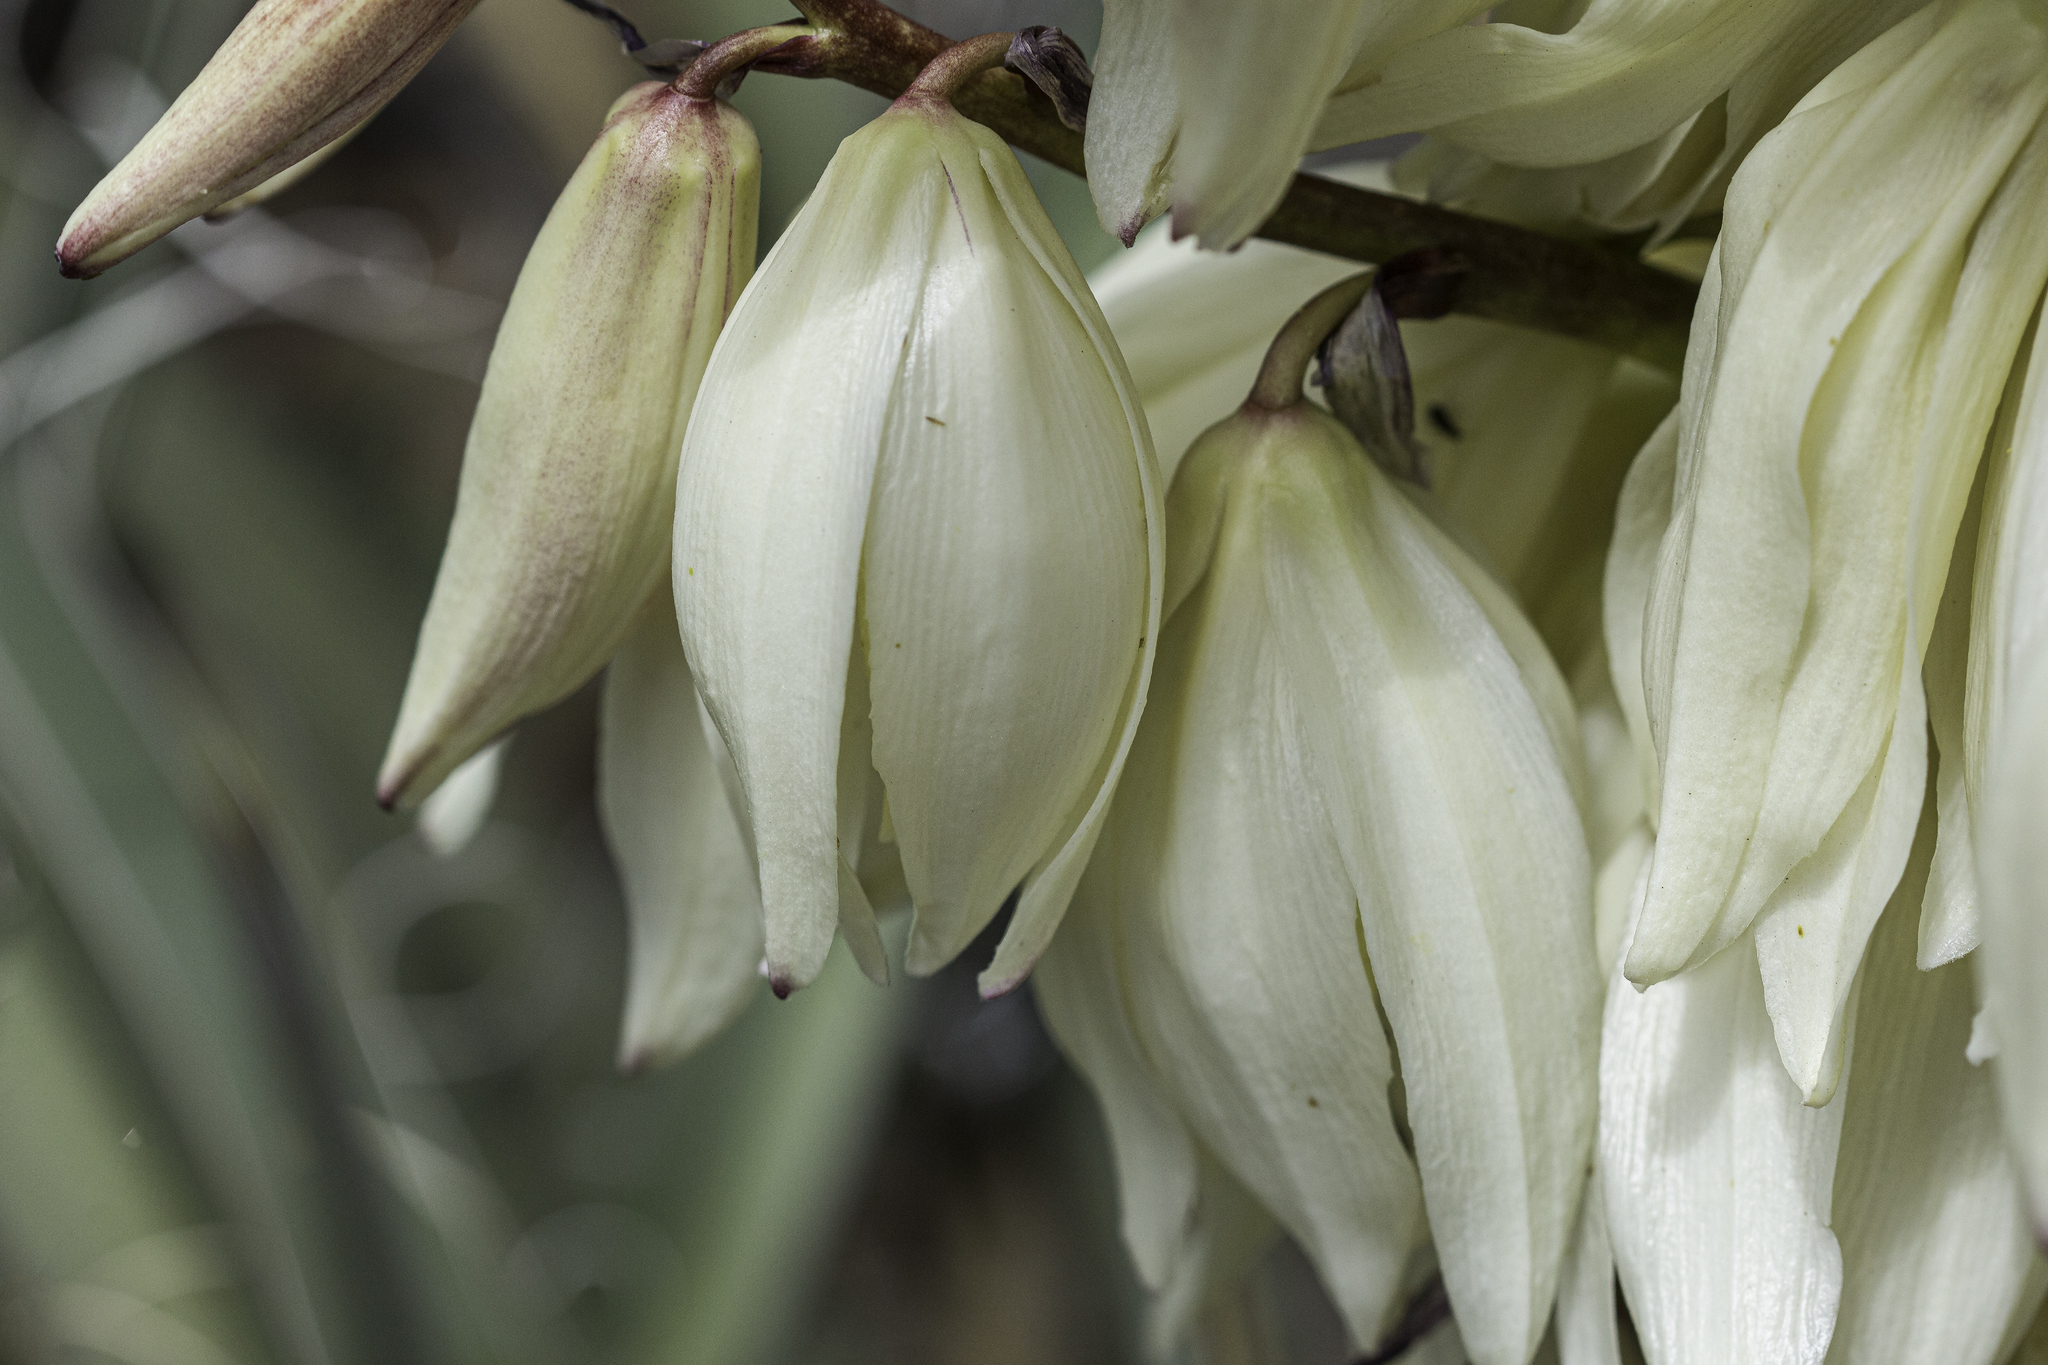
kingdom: Plantae
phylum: Tracheophyta
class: Liliopsida
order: Asparagales
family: Asparagaceae
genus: Yucca
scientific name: Yucca baccata
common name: Banana yucca
